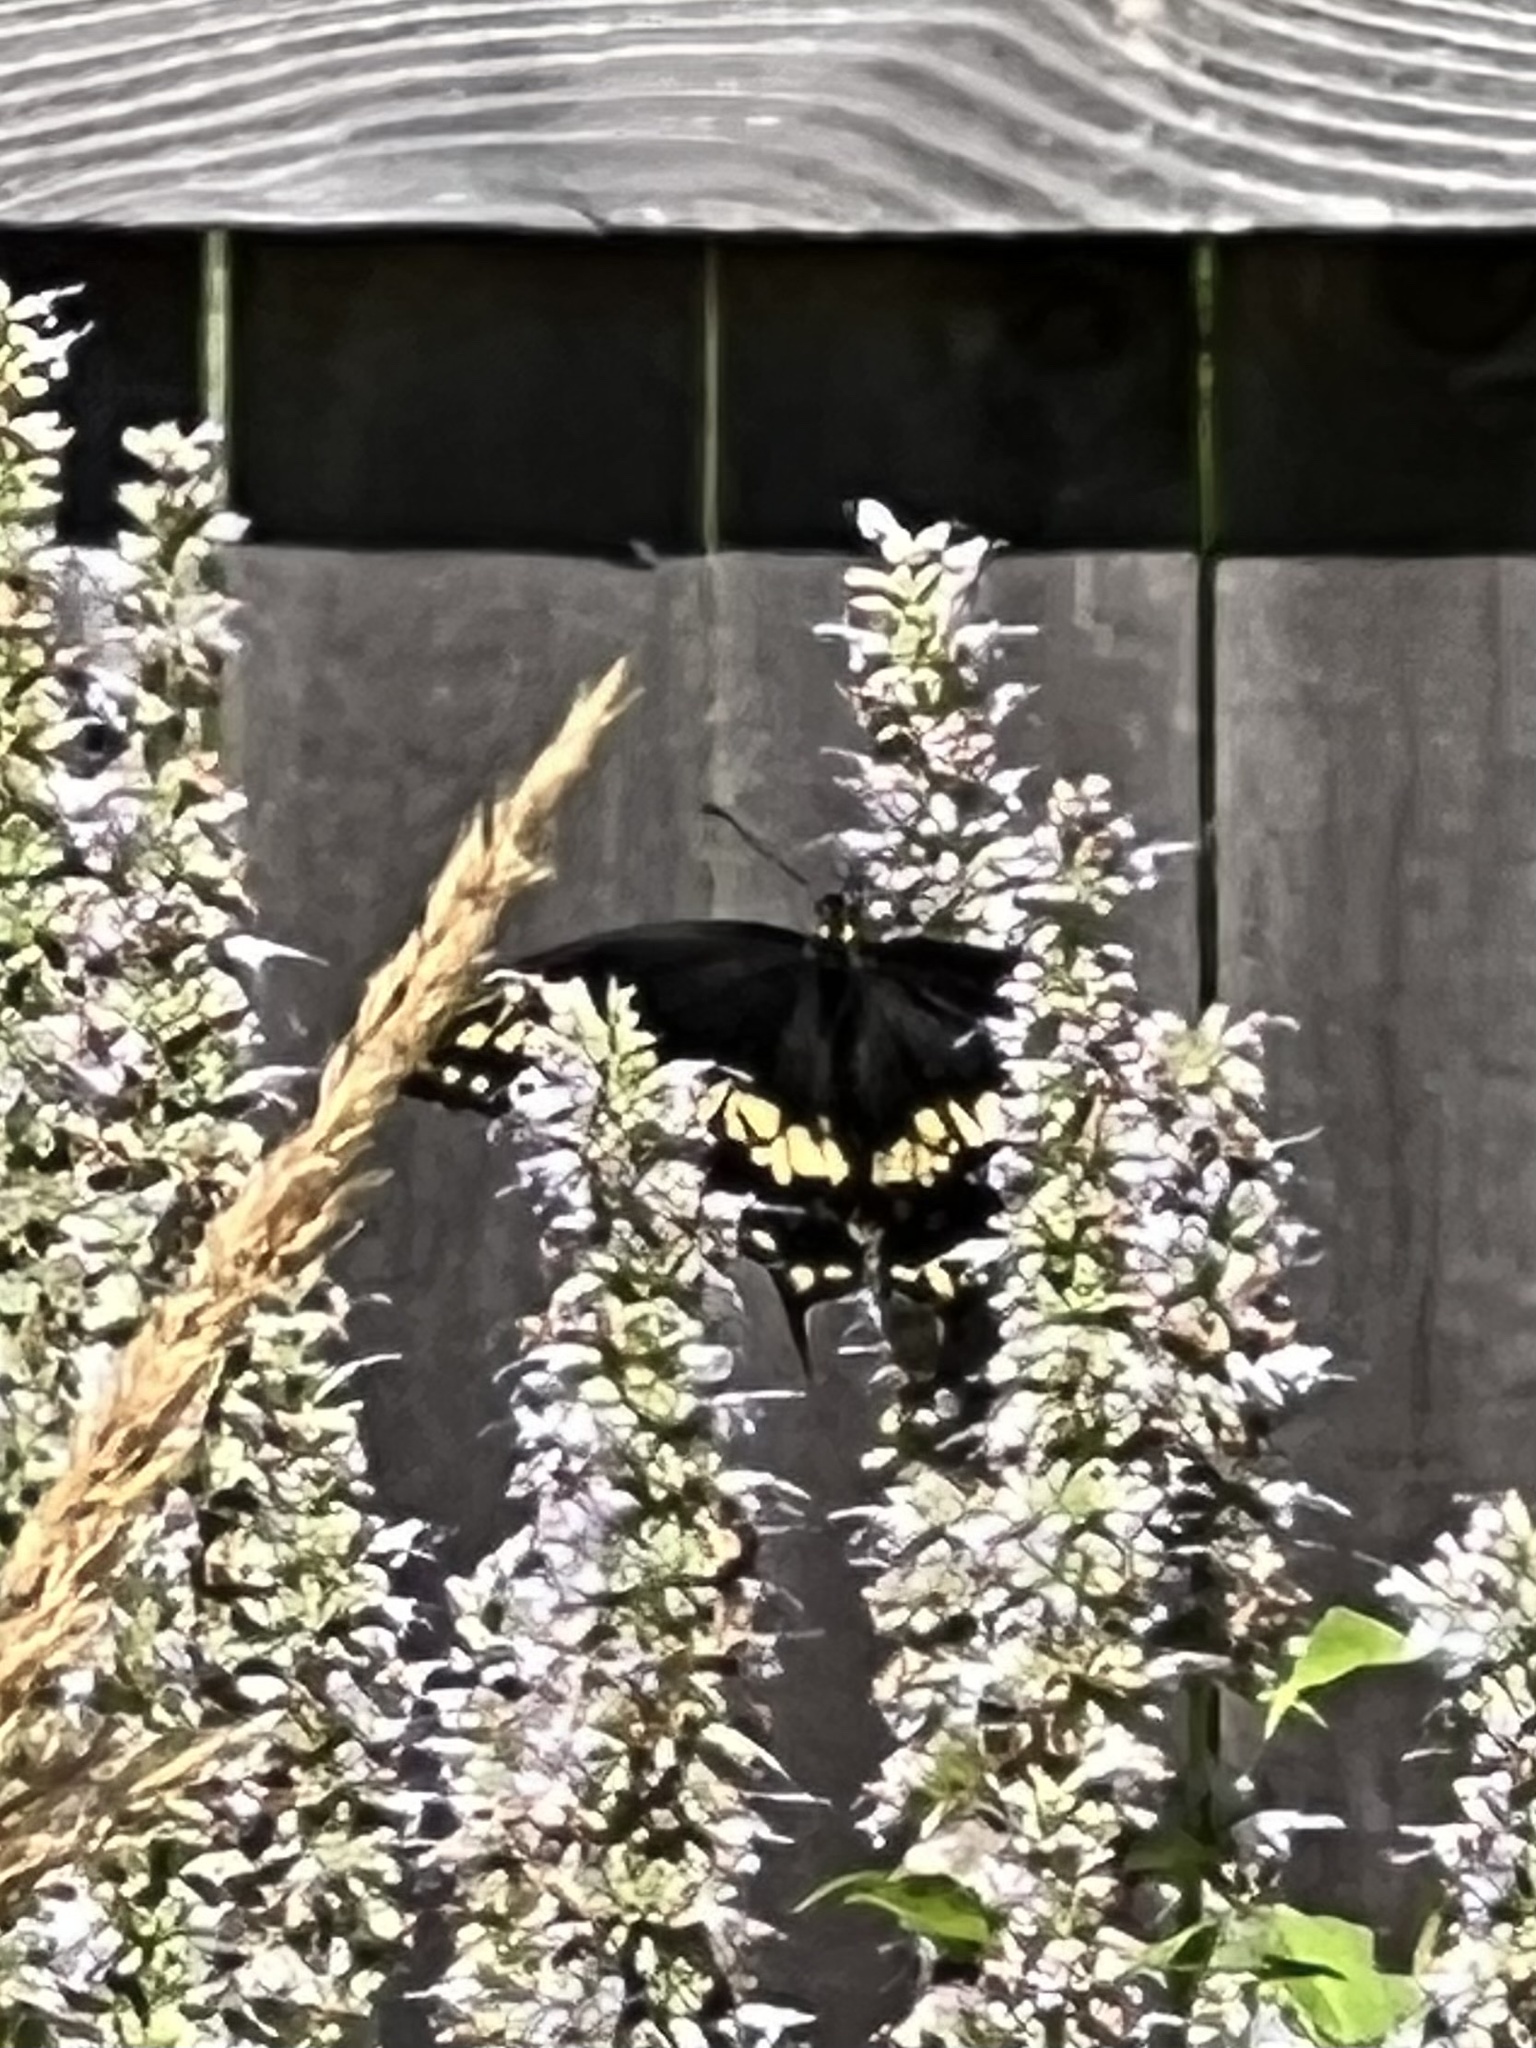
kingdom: Animalia
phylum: Arthropoda
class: Insecta
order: Lepidoptera
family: Papilionidae
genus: Papilio
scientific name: Papilio polyxenes
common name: Black swallowtail
